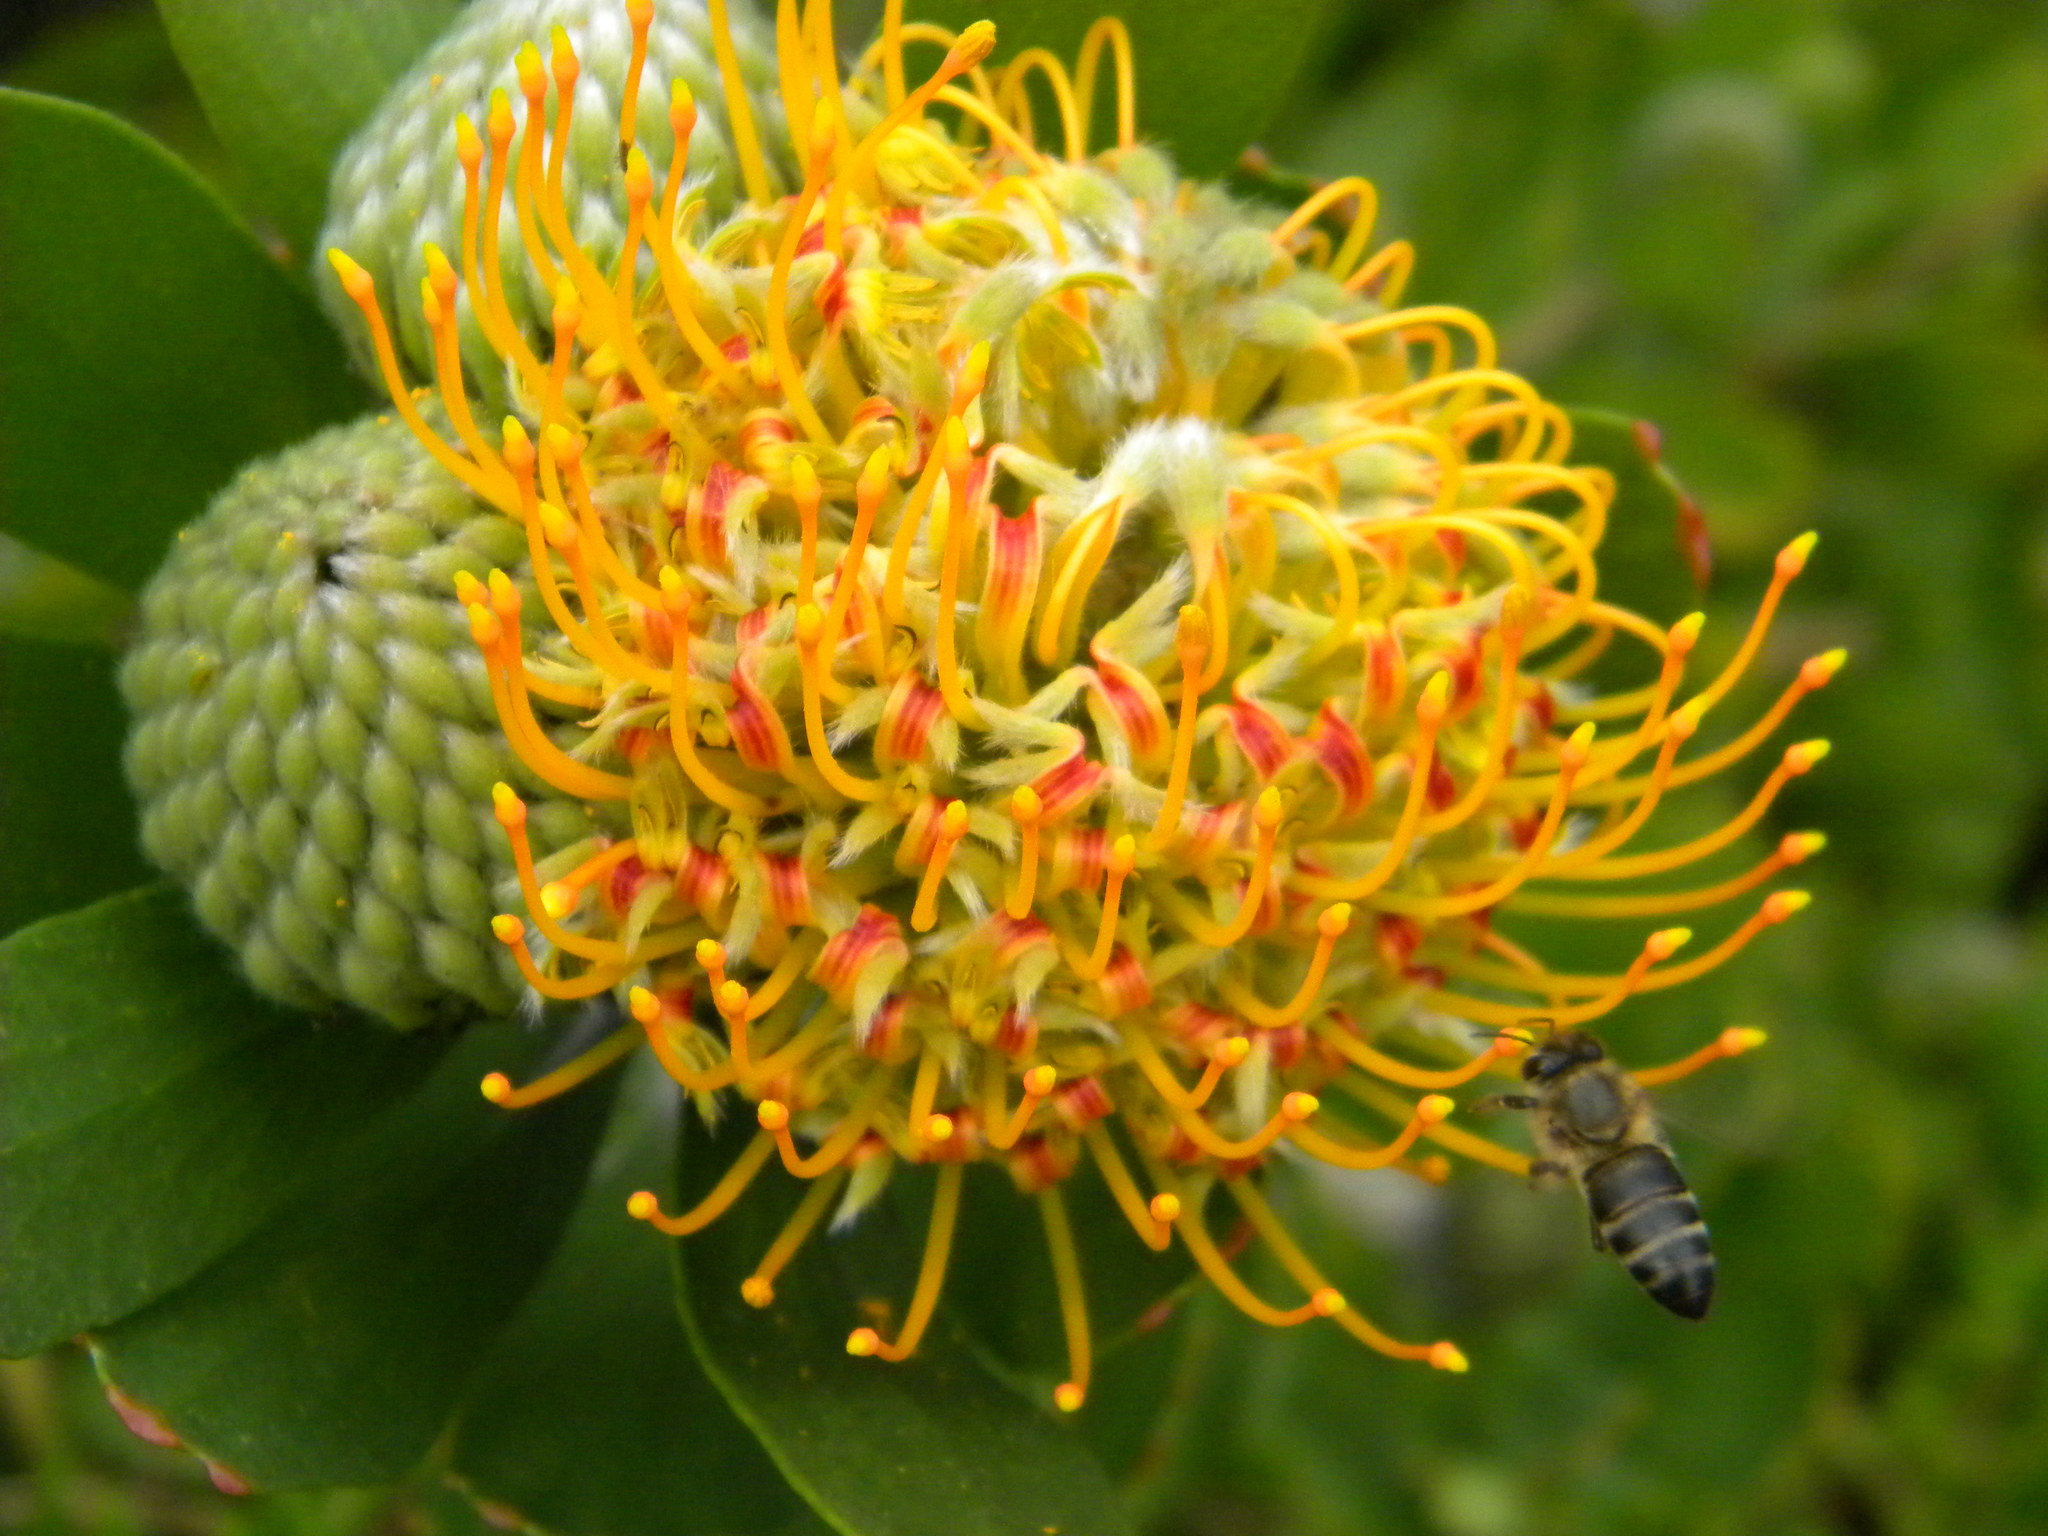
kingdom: Animalia
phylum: Arthropoda
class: Insecta
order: Hymenoptera
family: Apidae
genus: Apis
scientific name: Apis mellifera
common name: Honey bee
